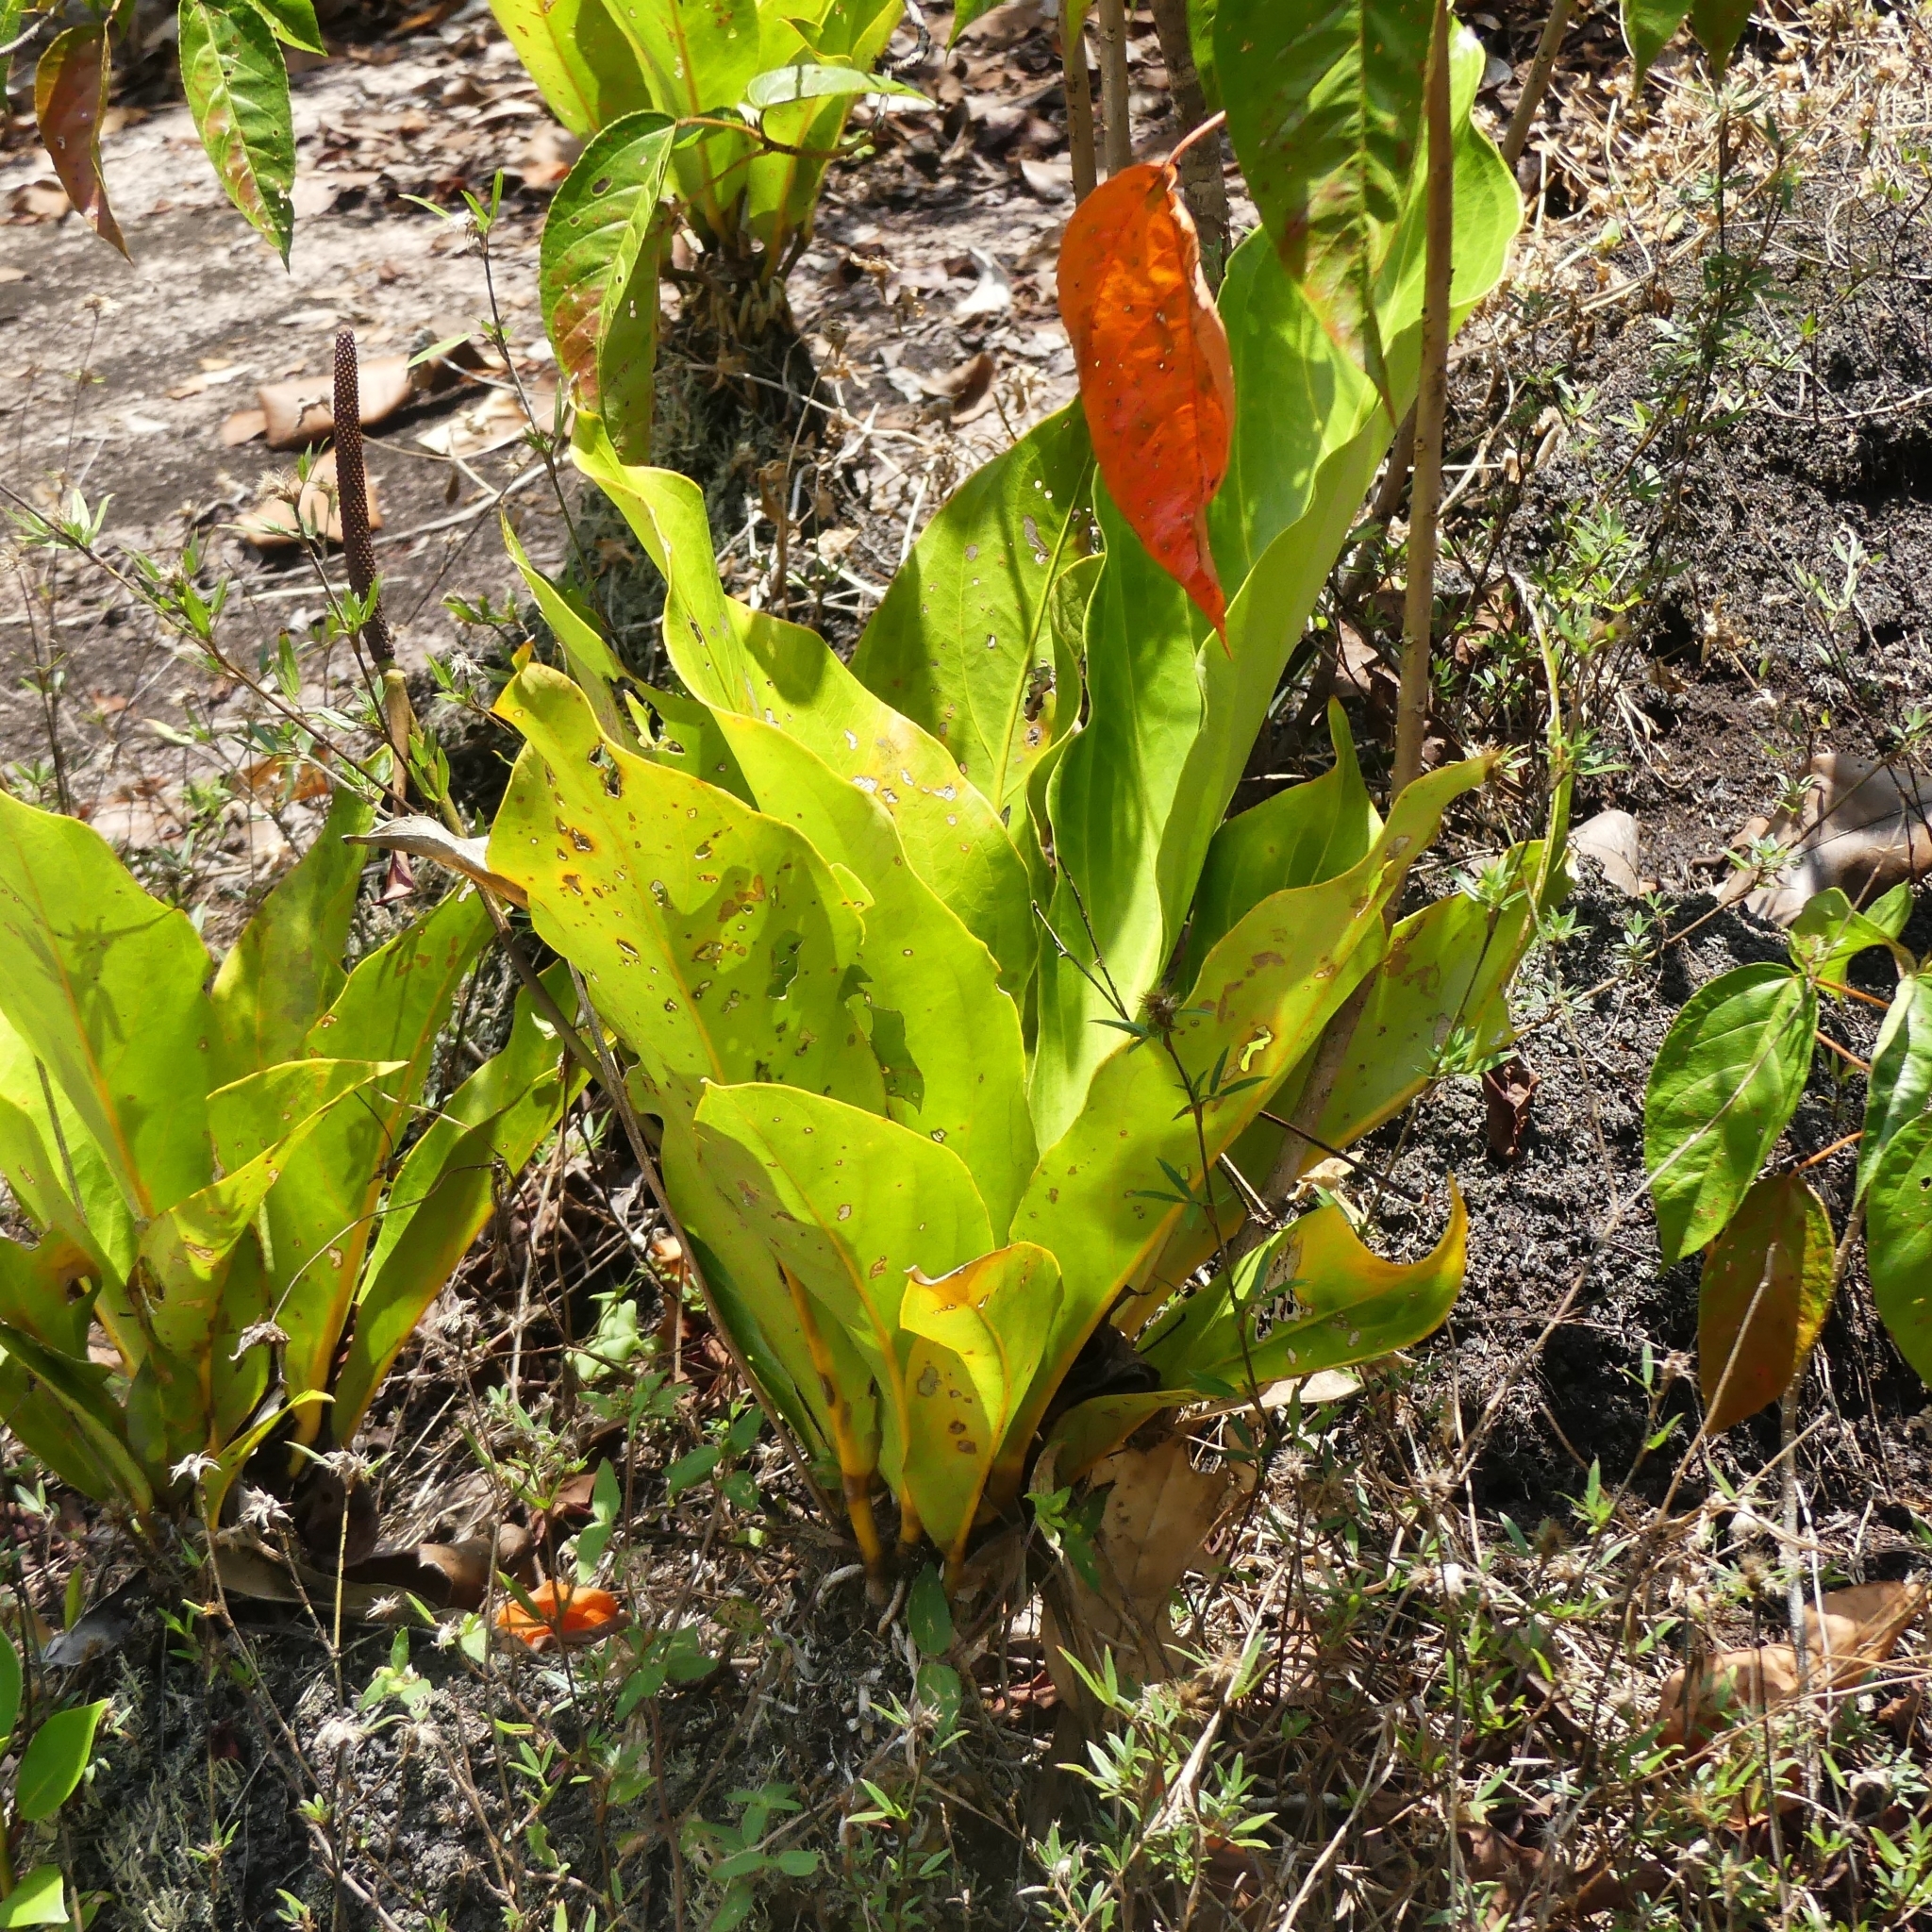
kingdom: Plantae
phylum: Tracheophyta
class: Liliopsida
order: Alismatales
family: Araceae
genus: Anthurium
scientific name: Anthurium jenmanii
